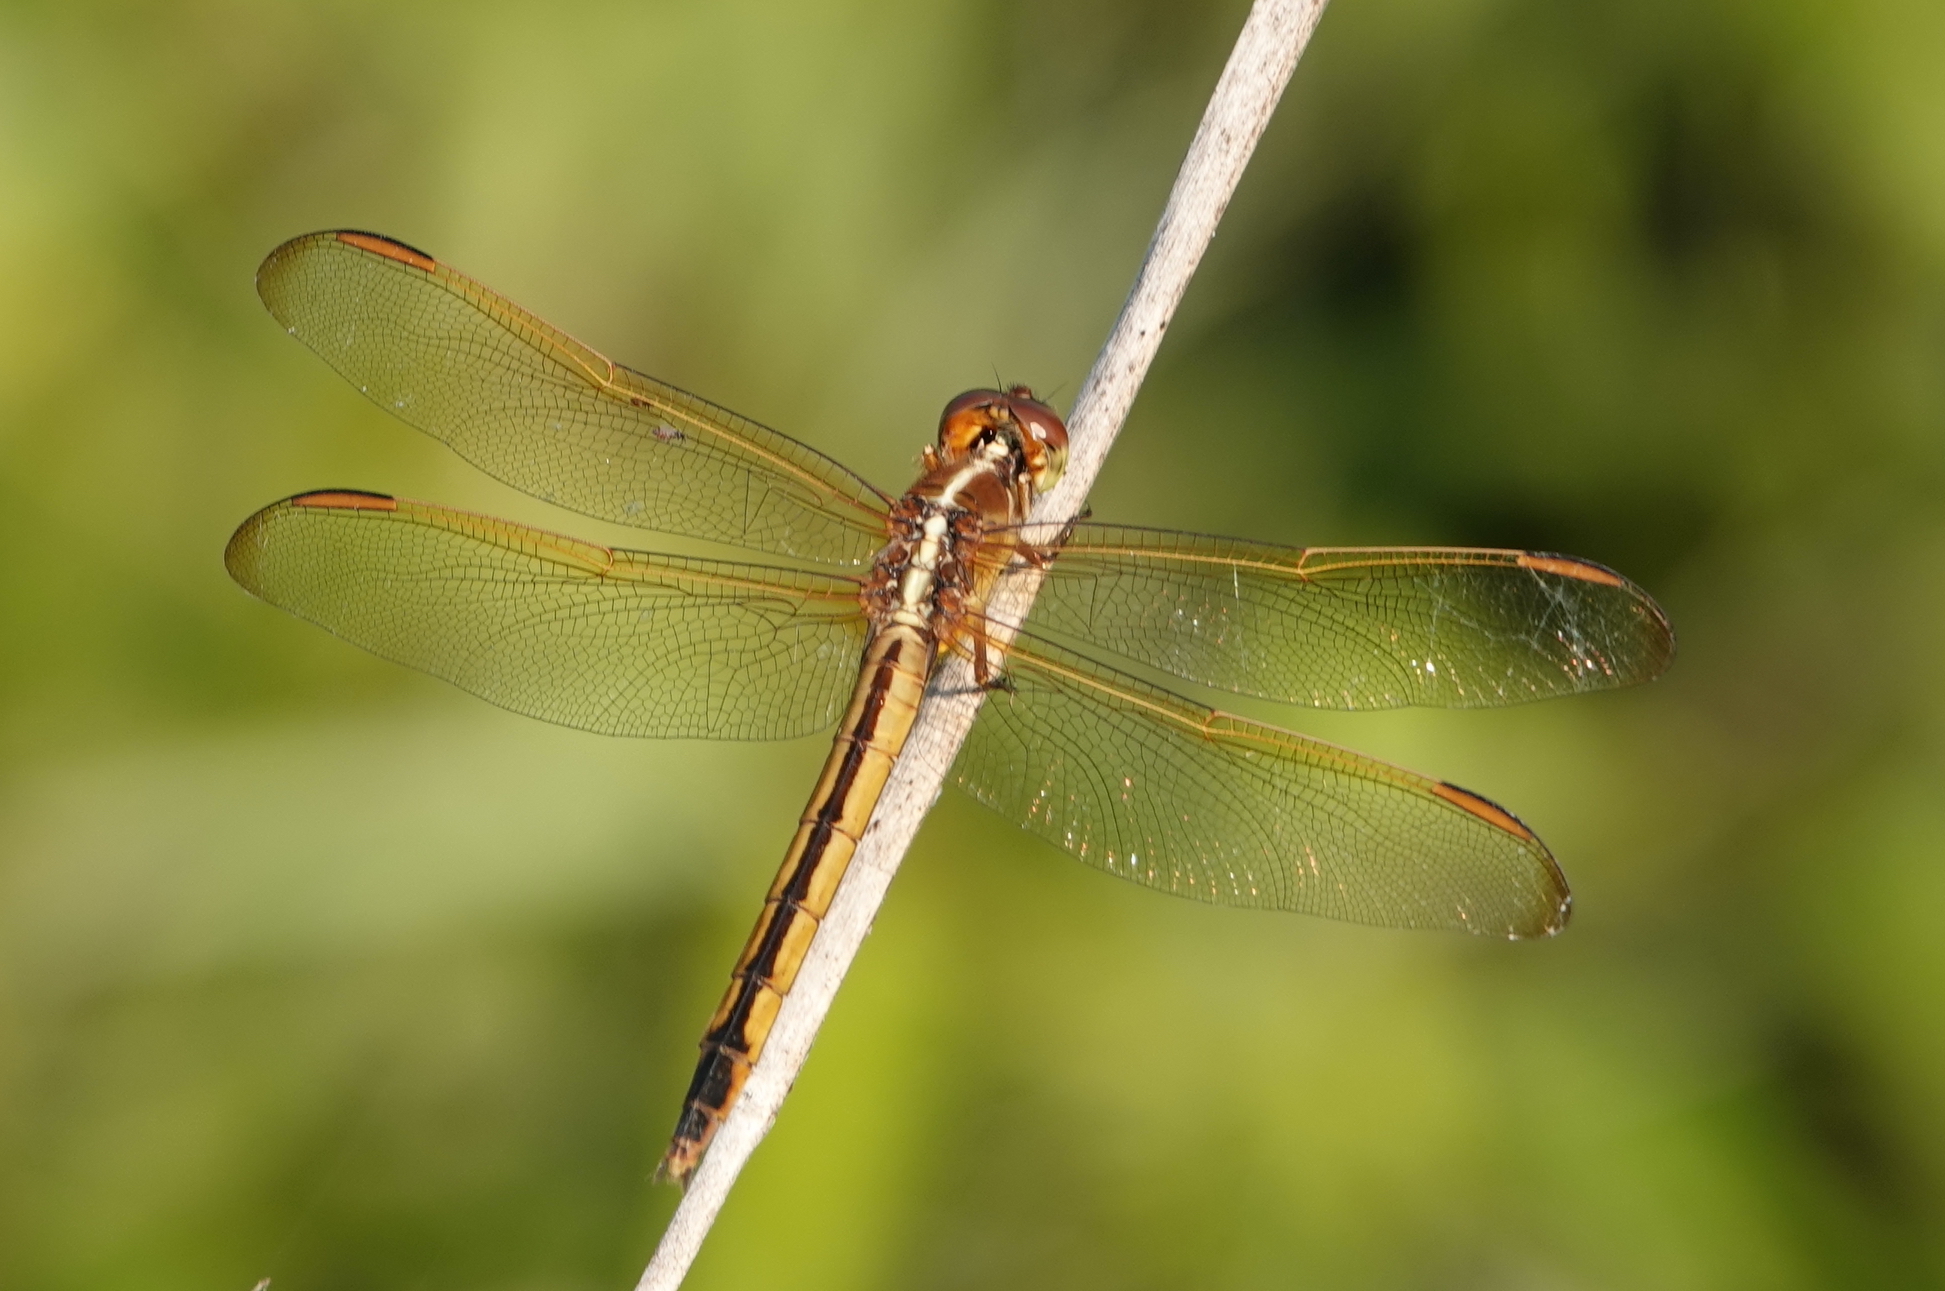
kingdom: Animalia
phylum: Arthropoda
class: Insecta
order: Odonata
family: Libellulidae
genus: Libellula
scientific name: Libellula needhami
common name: Needham's skimmer
